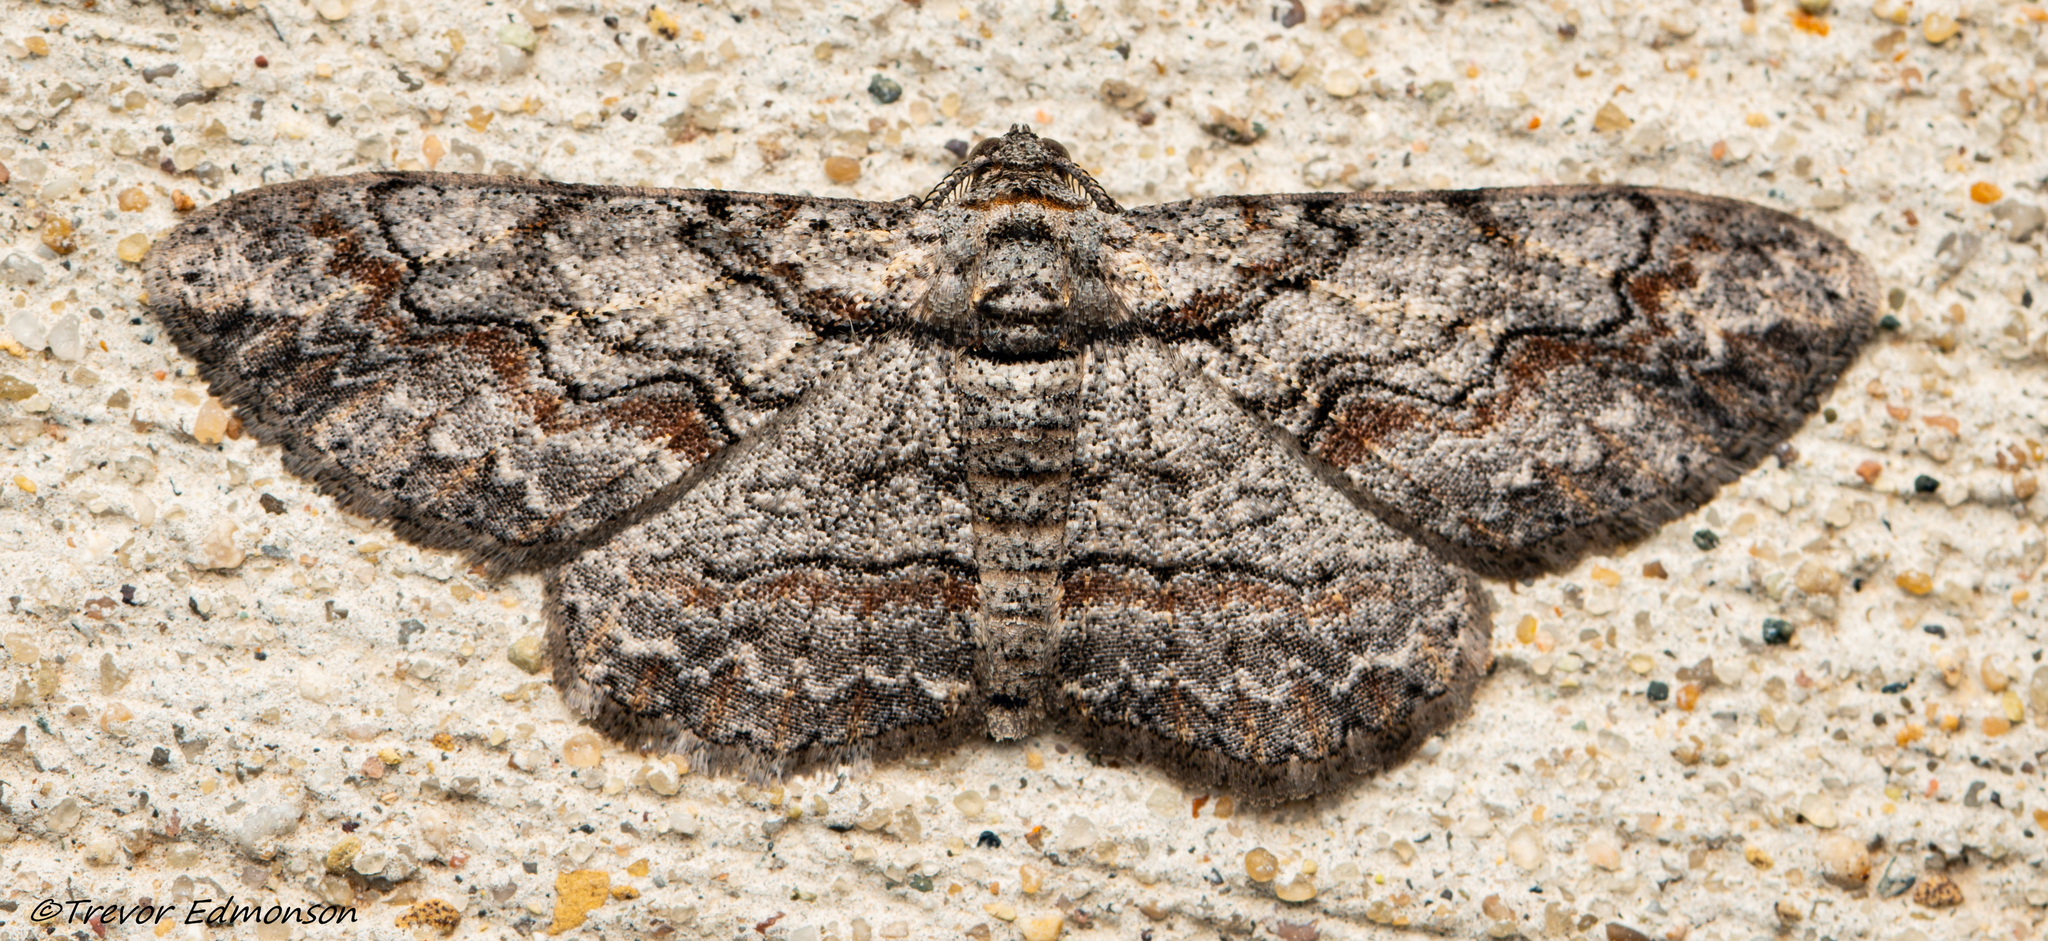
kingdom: Animalia
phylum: Arthropoda
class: Insecta
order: Lepidoptera
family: Geometridae
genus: Iridopsis
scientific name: Iridopsis defectaria
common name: Brown-shaded gray
